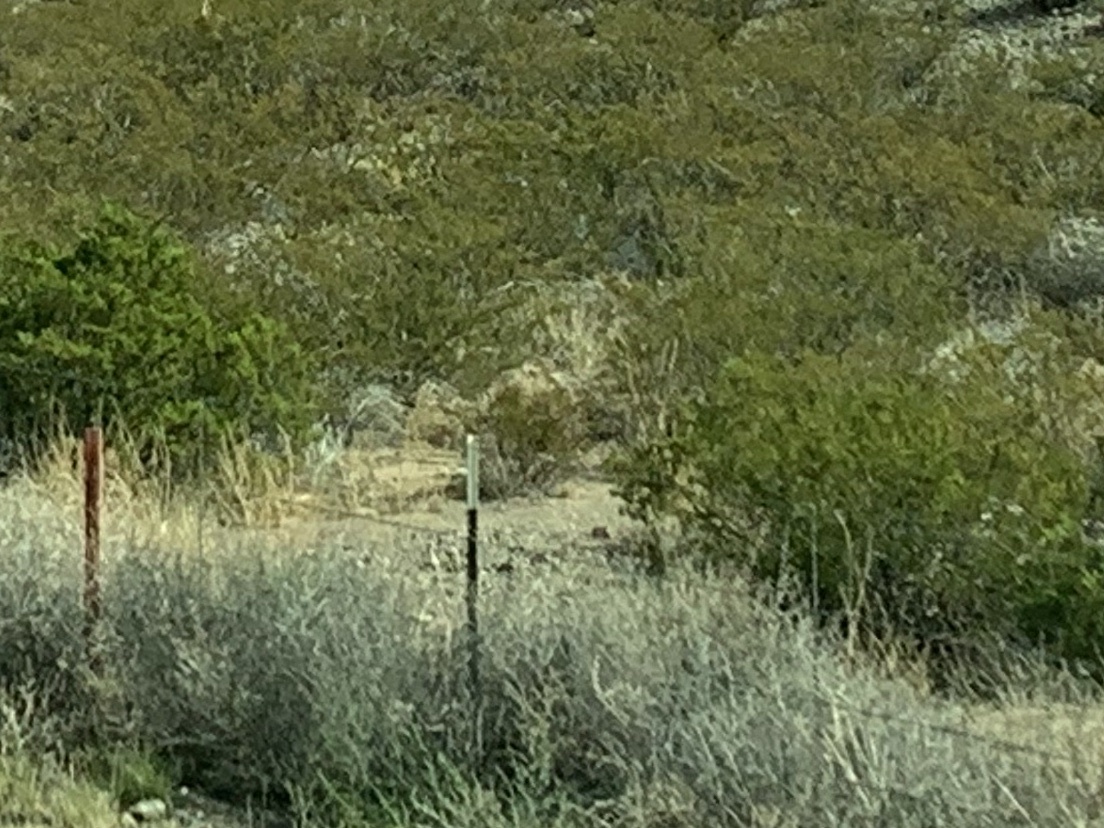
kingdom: Plantae
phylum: Tracheophyta
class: Magnoliopsida
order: Zygophyllales
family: Zygophyllaceae
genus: Larrea
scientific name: Larrea tridentata
